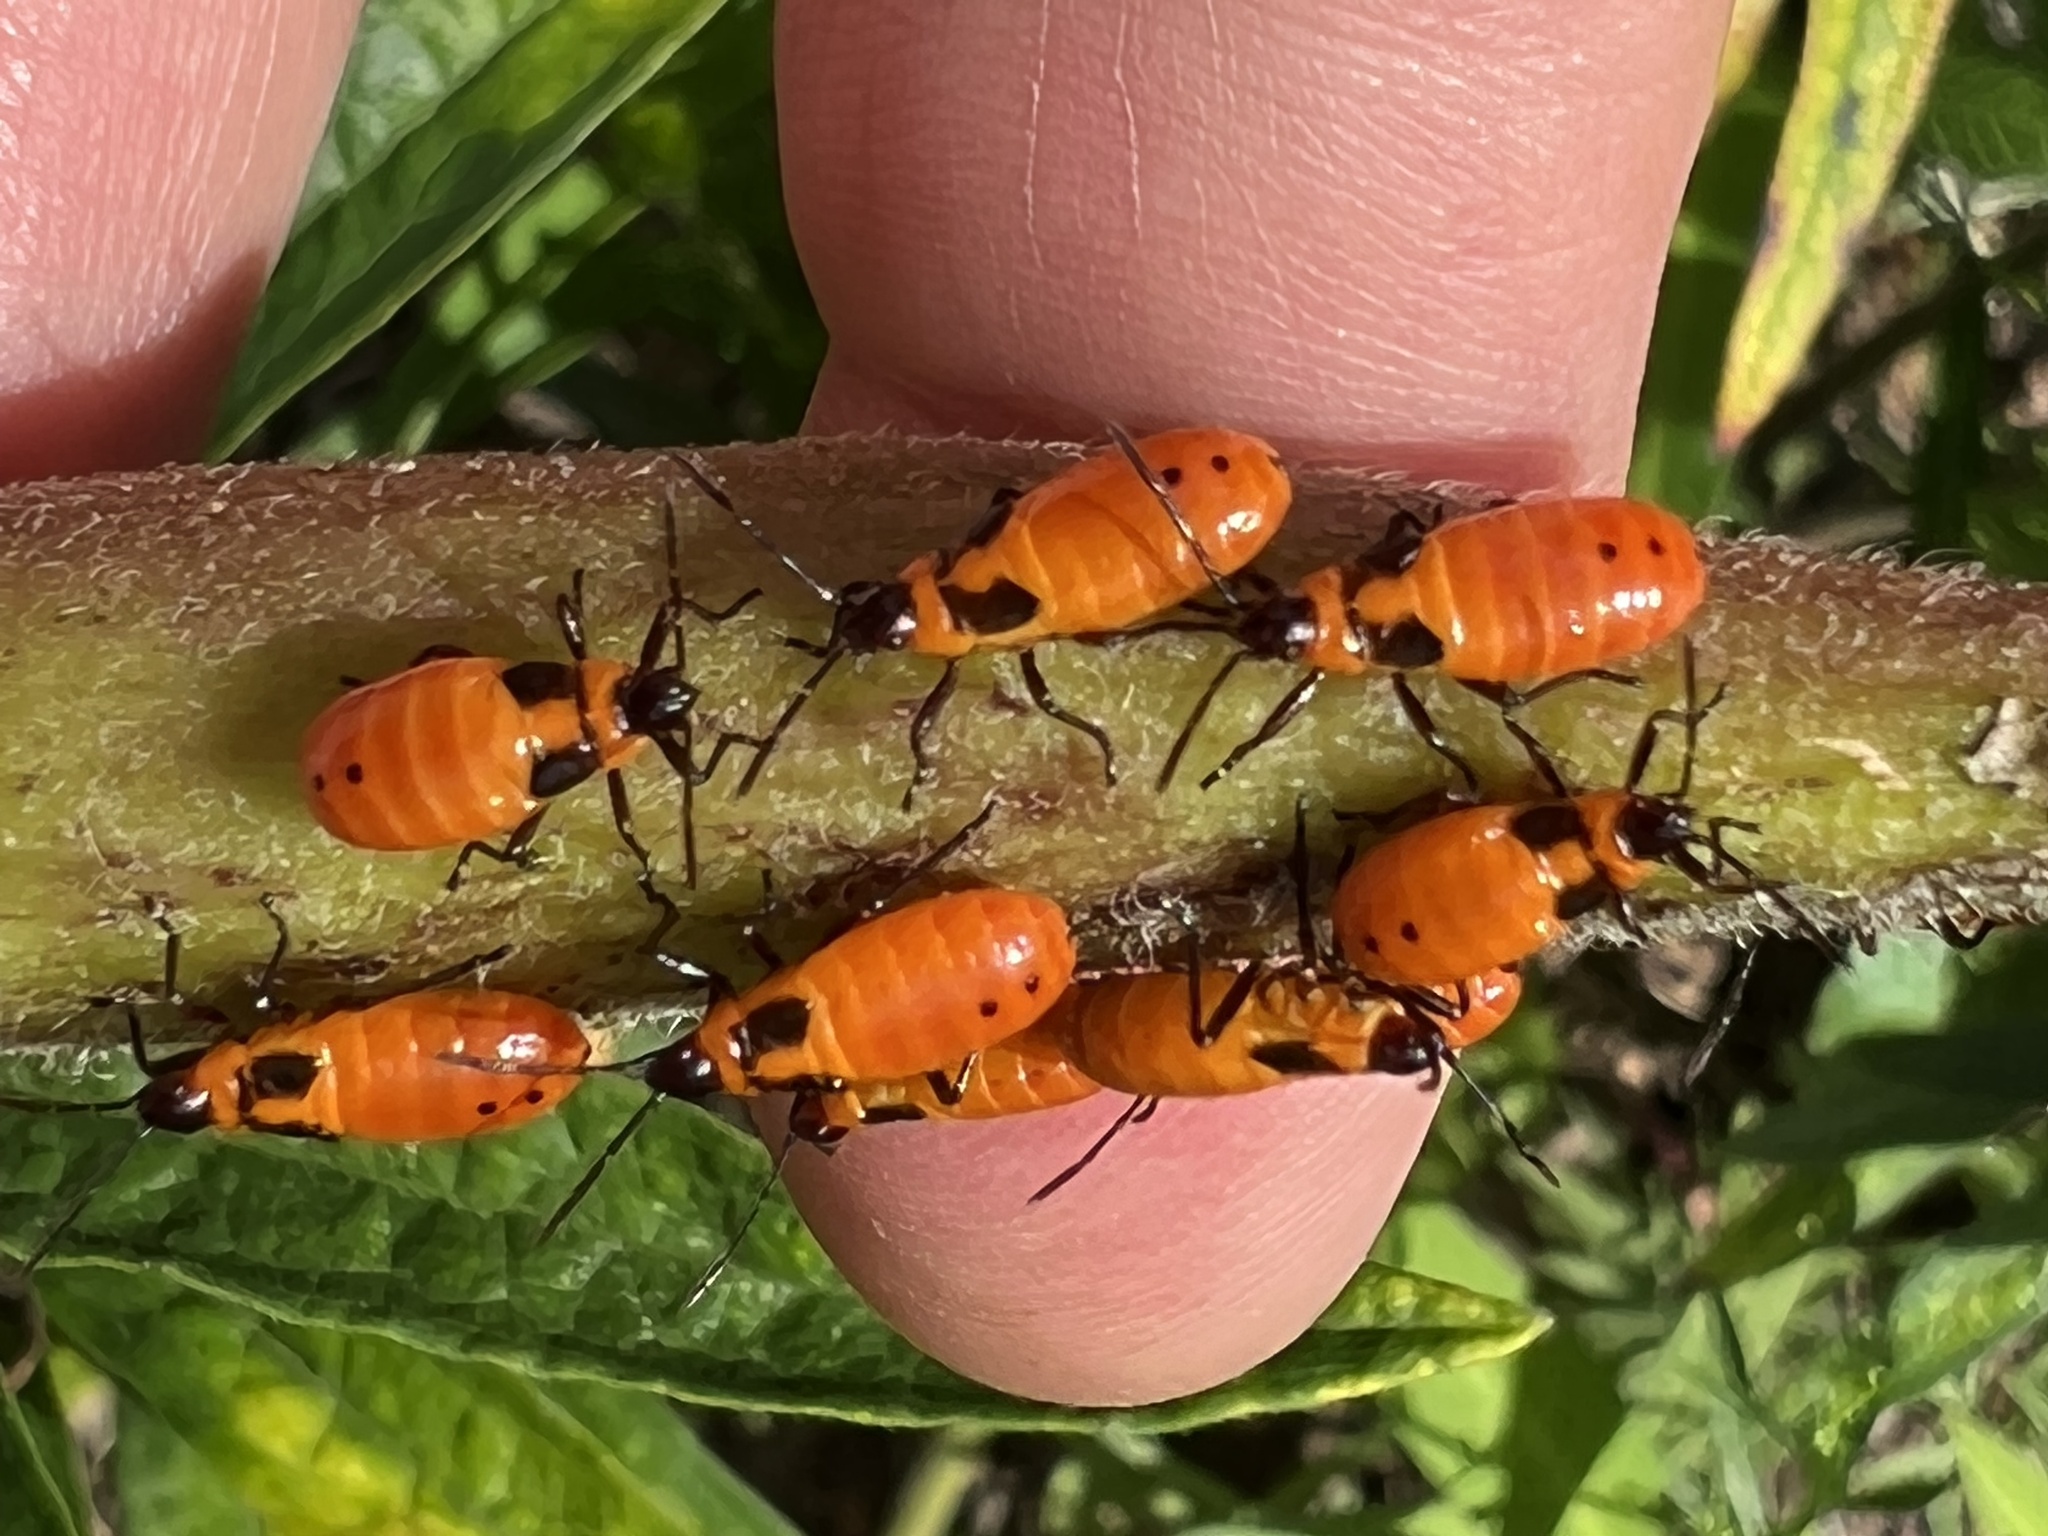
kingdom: Animalia
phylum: Arthropoda
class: Insecta
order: Hemiptera
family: Lygaeidae
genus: Oncopeltus
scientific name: Oncopeltus fasciatus
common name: Large milkweed bug
